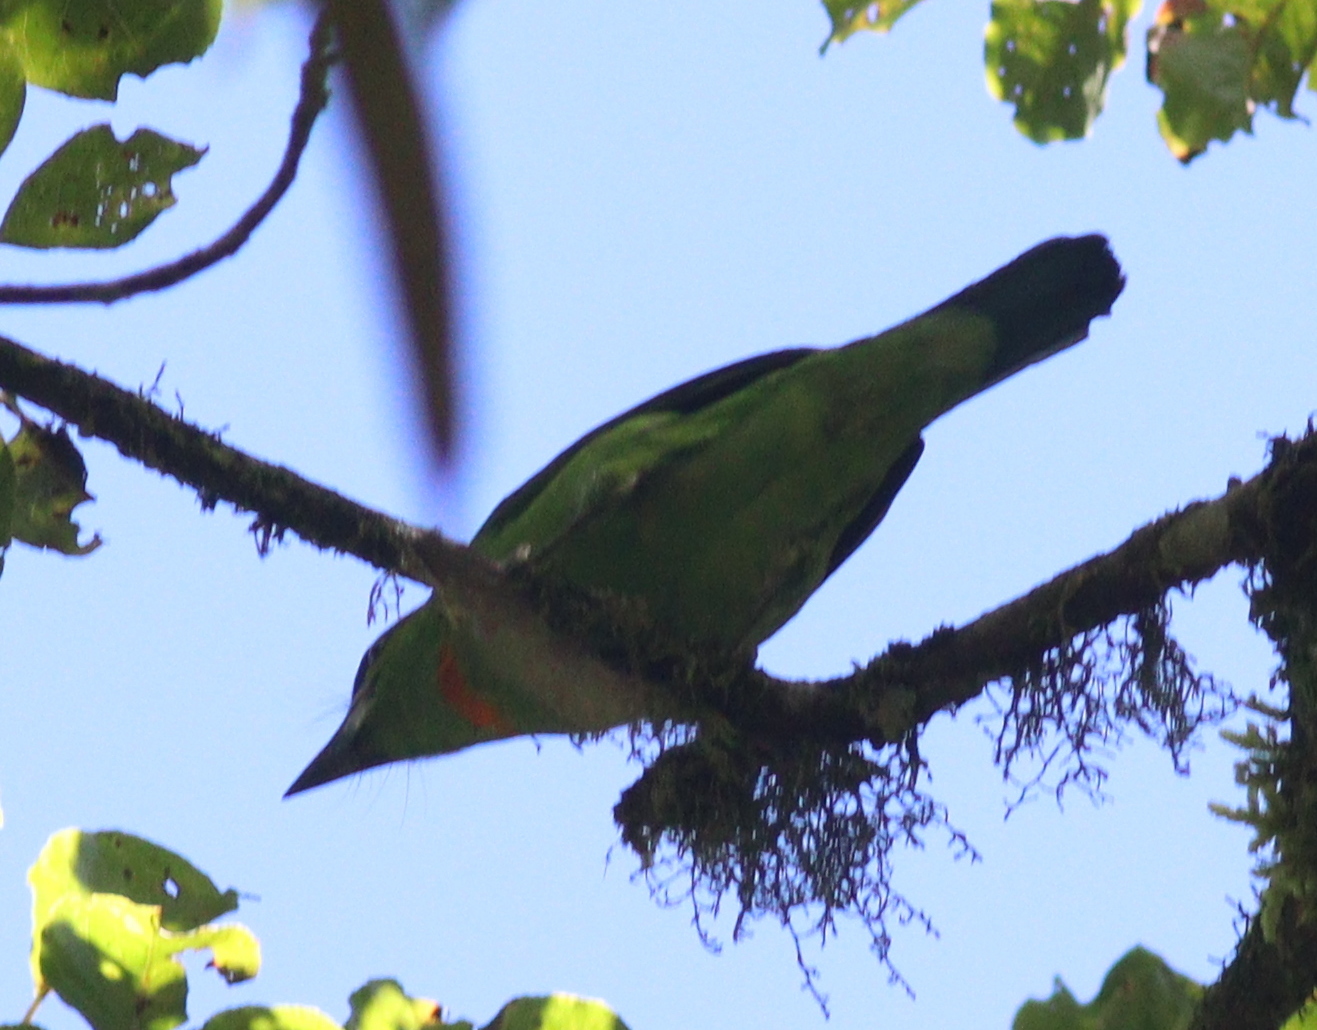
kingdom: Animalia
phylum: Chordata
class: Aves
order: Piciformes
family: Megalaimidae
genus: Psilopogon
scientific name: Psilopogon armillaris
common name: Flame-fronted barbet
